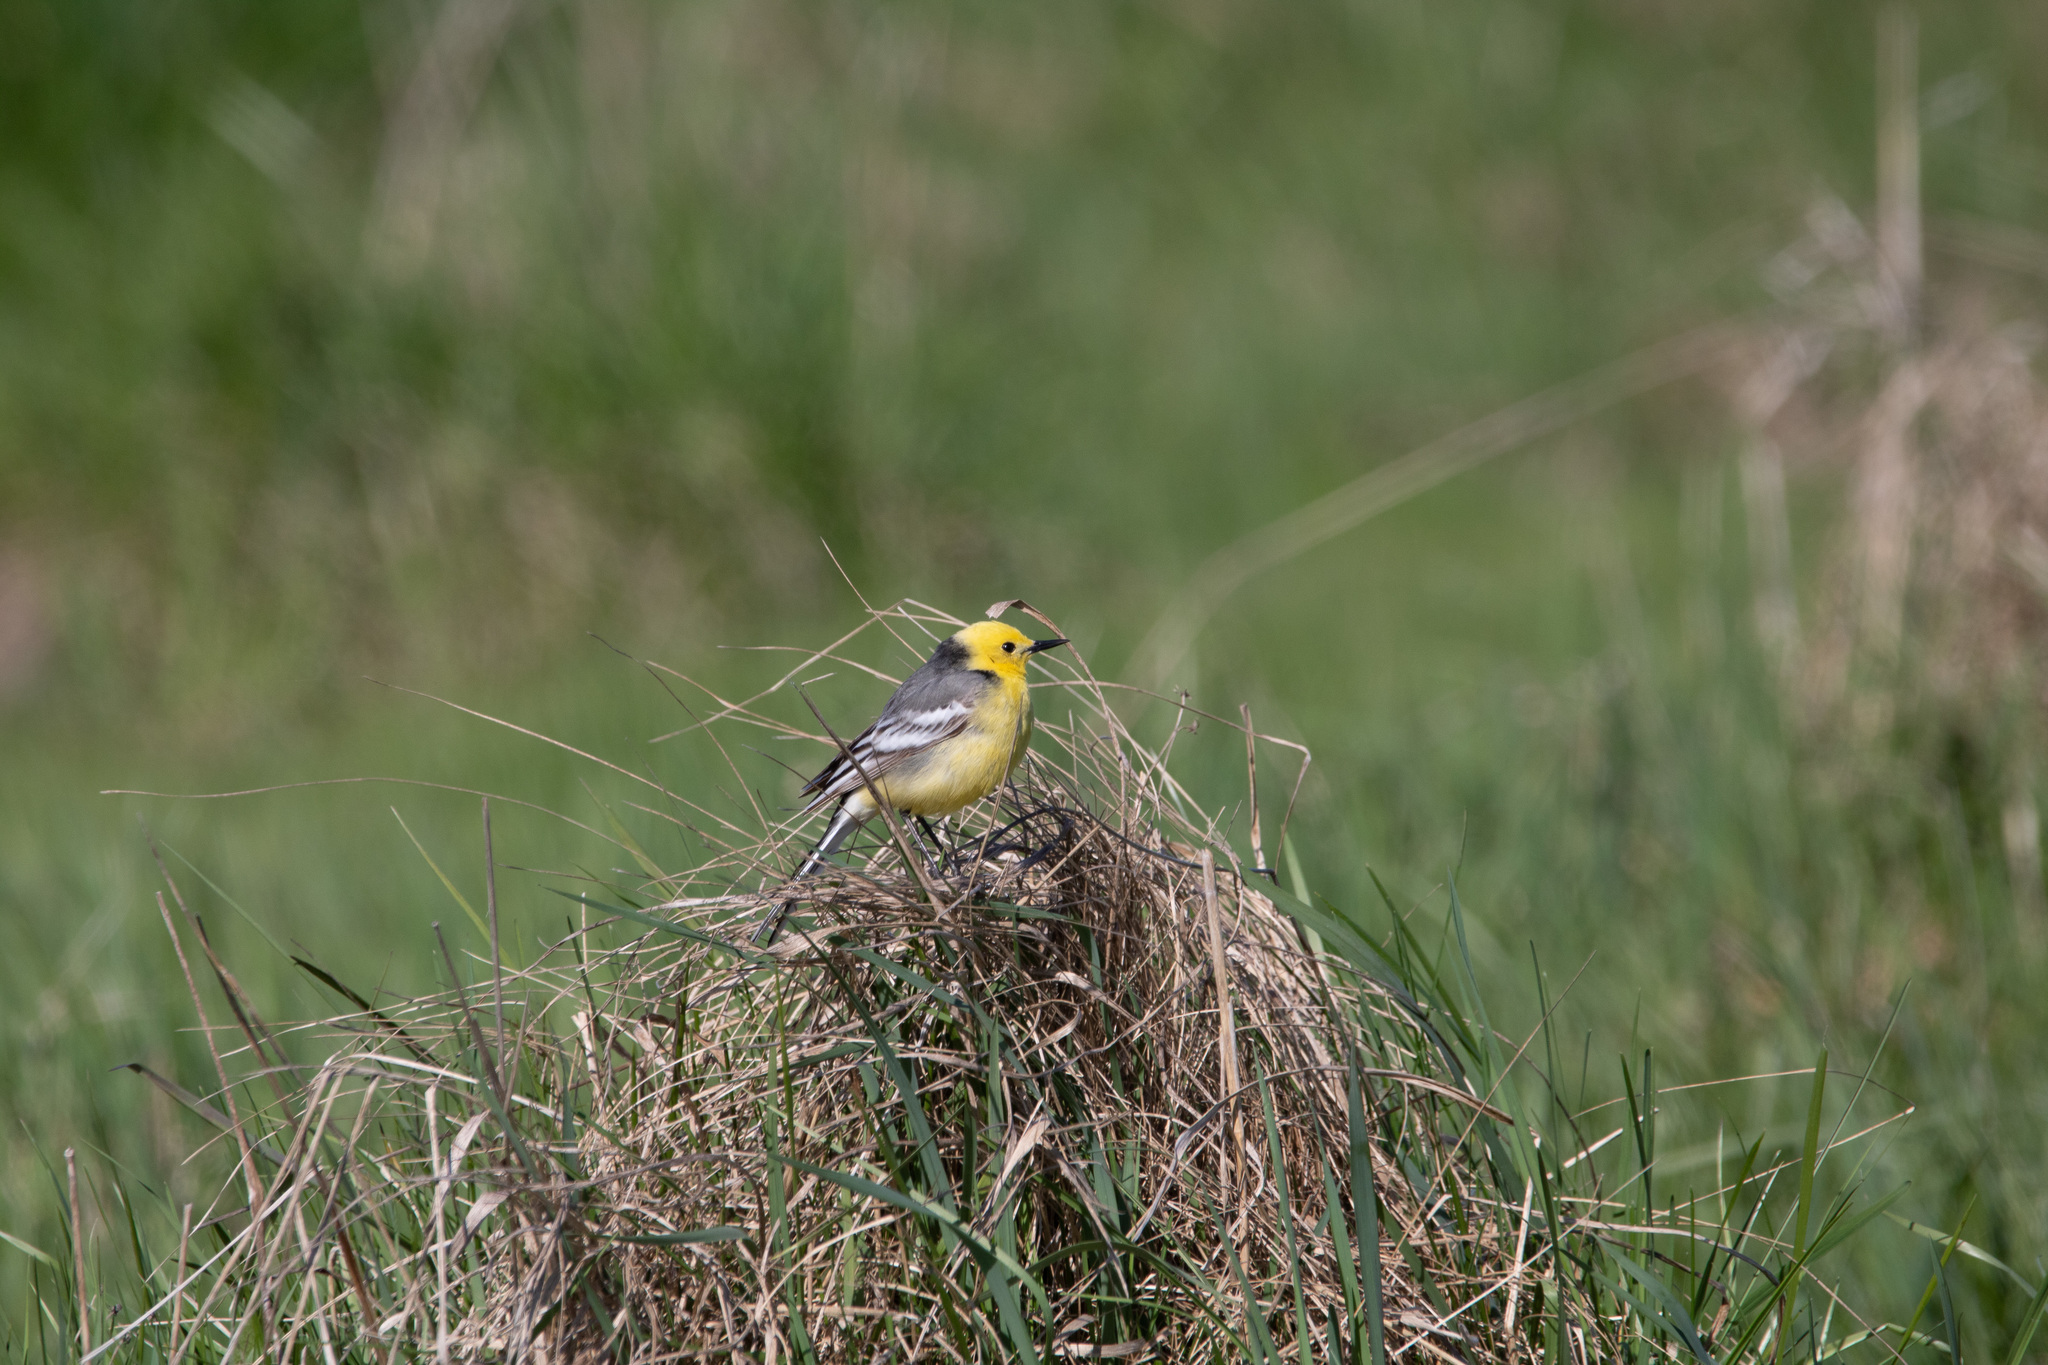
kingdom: Animalia
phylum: Chordata
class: Aves
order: Passeriformes
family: Motacillidae
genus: Motacilla
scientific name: Motacilla citreola
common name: Citrine wagtail
